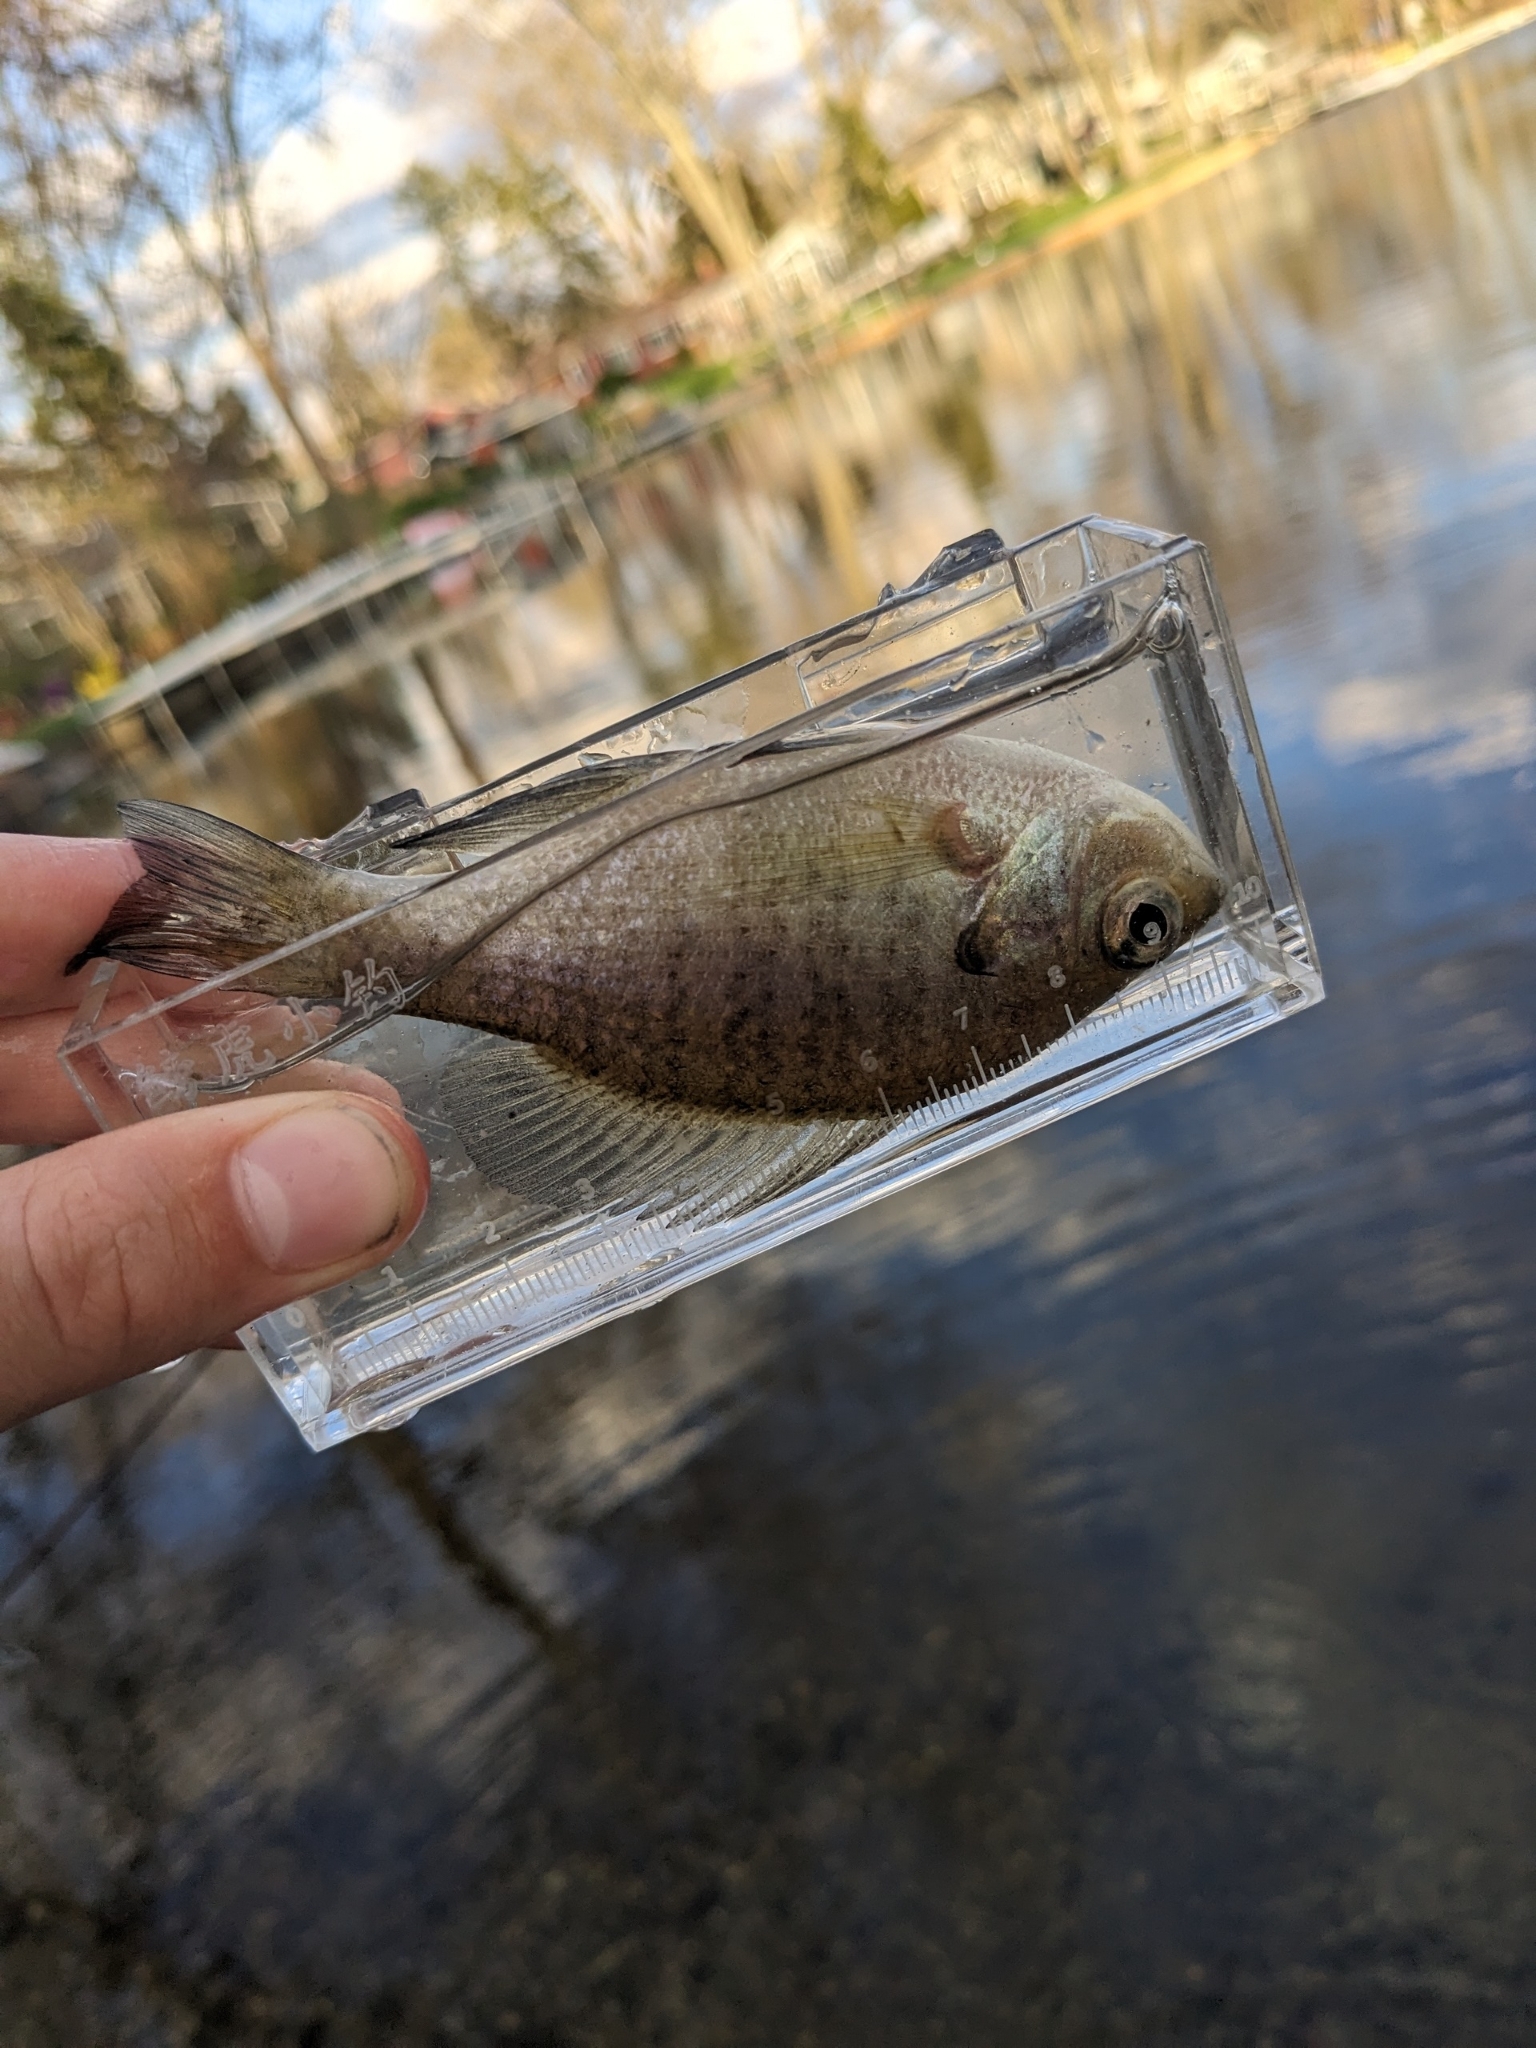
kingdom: Animalia
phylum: Chordata
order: Perciformes
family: Centrarchidae
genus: Lepomis
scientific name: Lepomis macrochirus
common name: Bluegill
